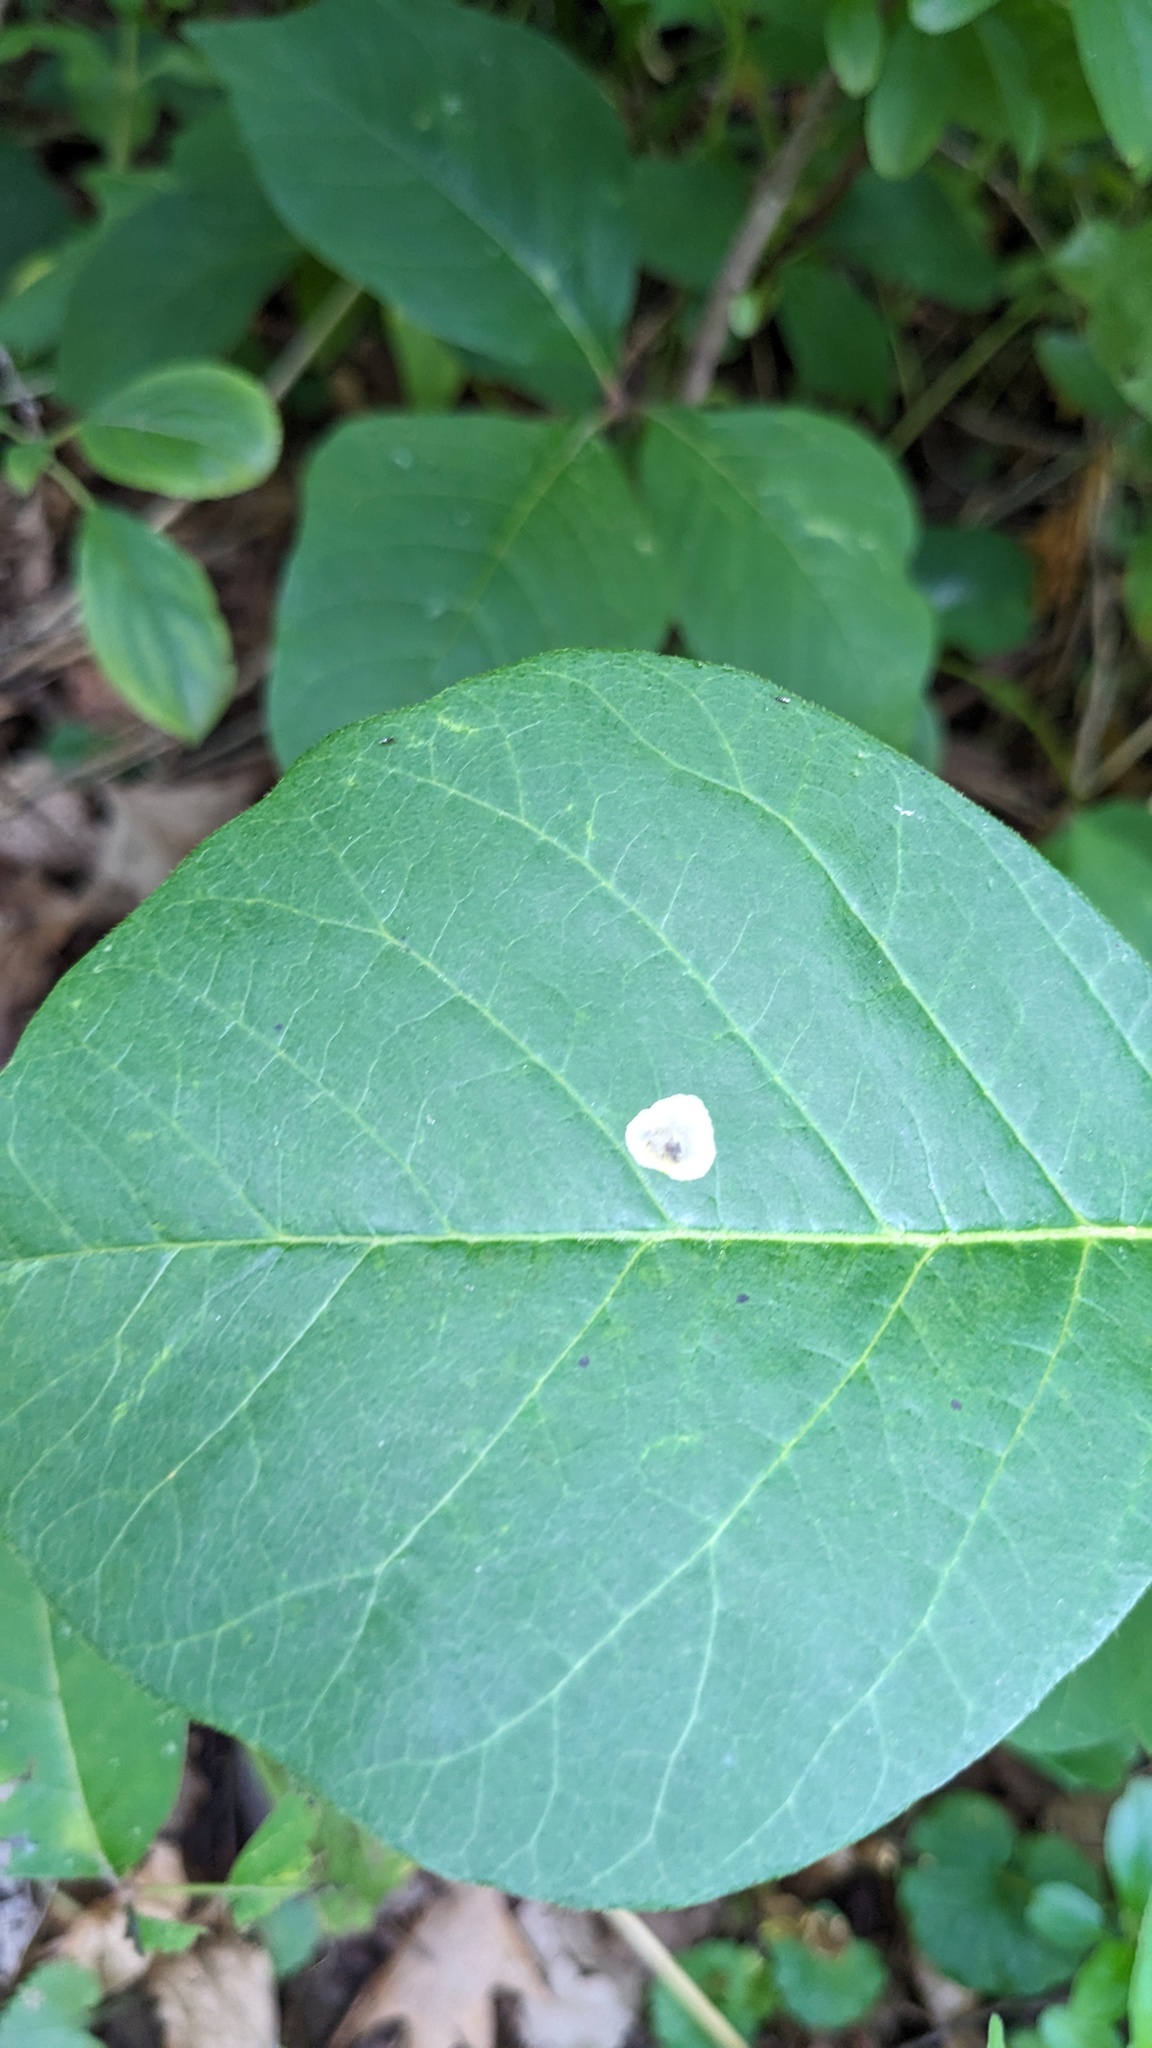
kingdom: Animalia
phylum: Arthropoda
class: Insecta
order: Lepidoptera
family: Gracillariidae
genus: Cameraria
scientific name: Cameraria guttifinitella
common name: Poison ivy leaf-miner moth
